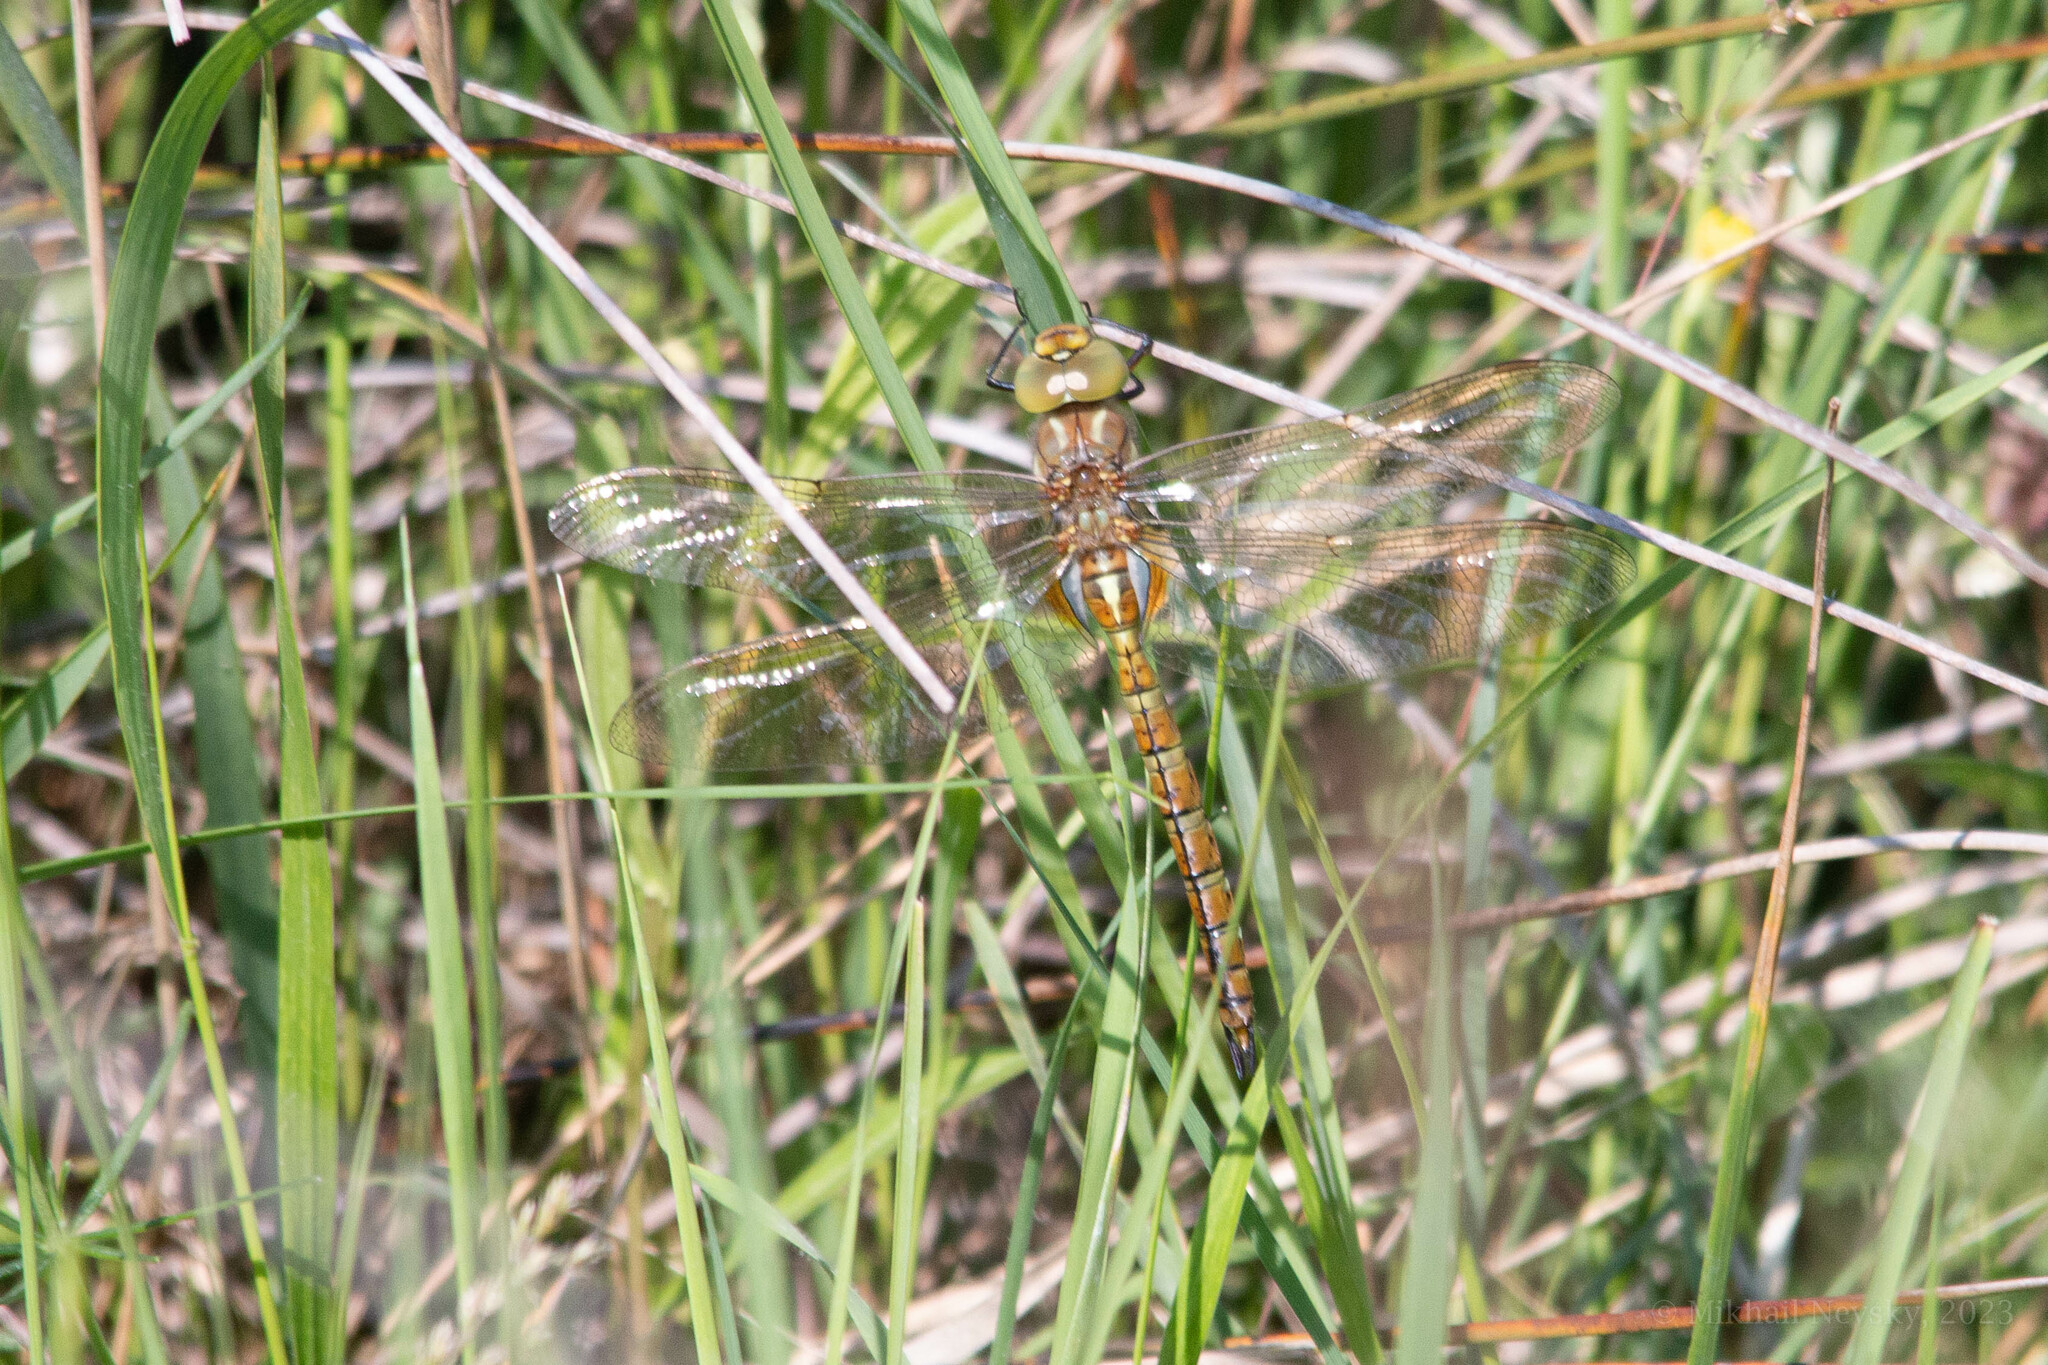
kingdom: Animalia
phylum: Arthropoda
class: Insecta
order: Odonata
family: Aeshnidae
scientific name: Aeshnidae
